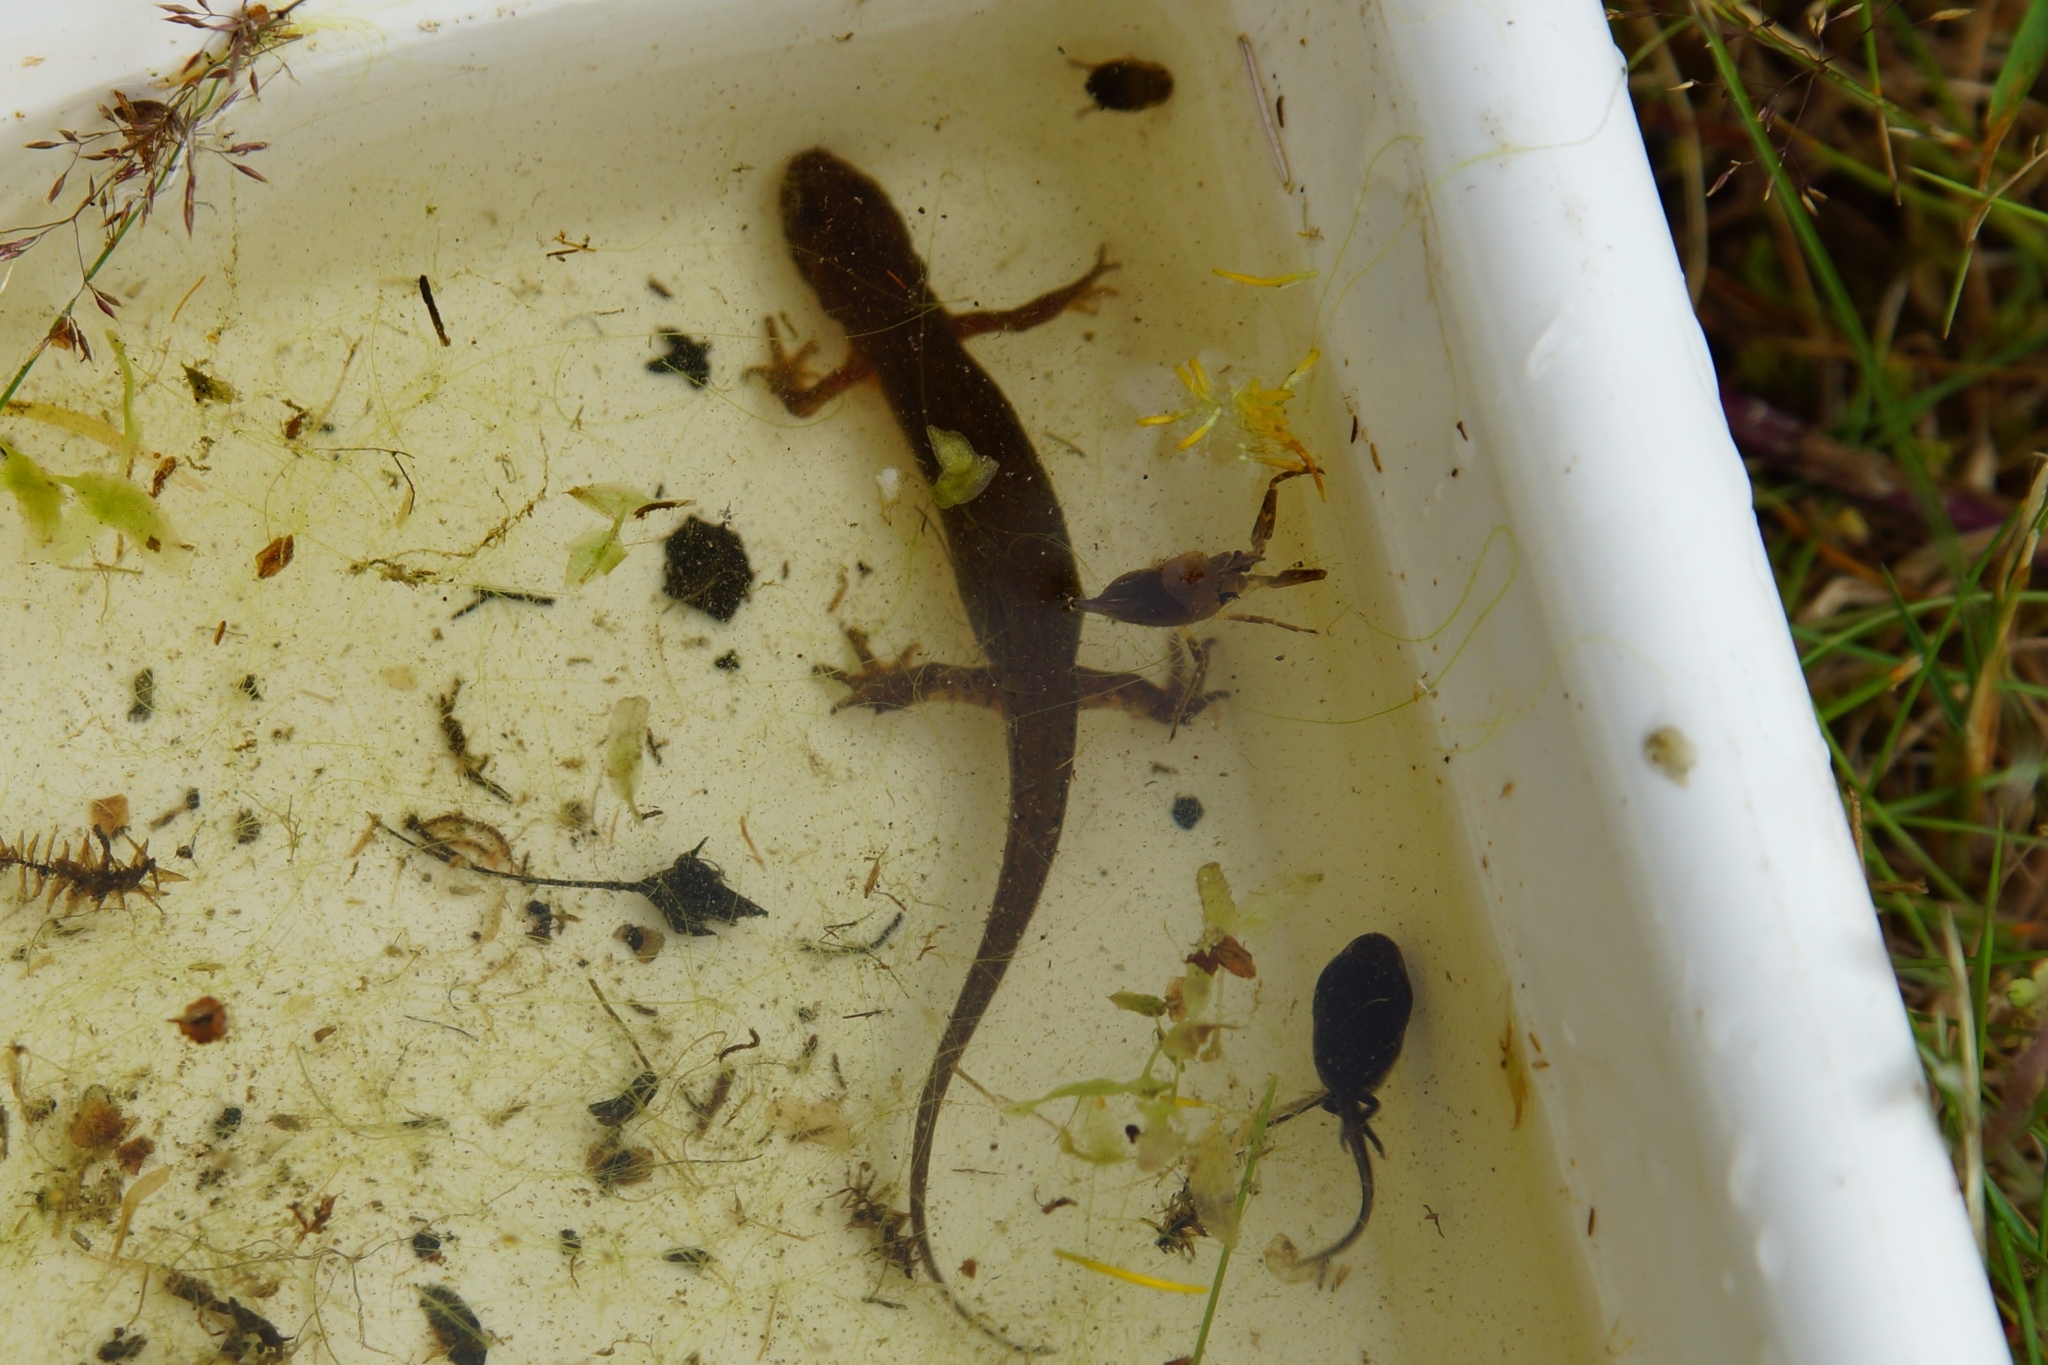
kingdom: Animalia
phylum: Chordata
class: Amphibia
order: Caudata
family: Salamandridae
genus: Lissotriton
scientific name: Lissotriton vulgaris
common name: Smooth newt
